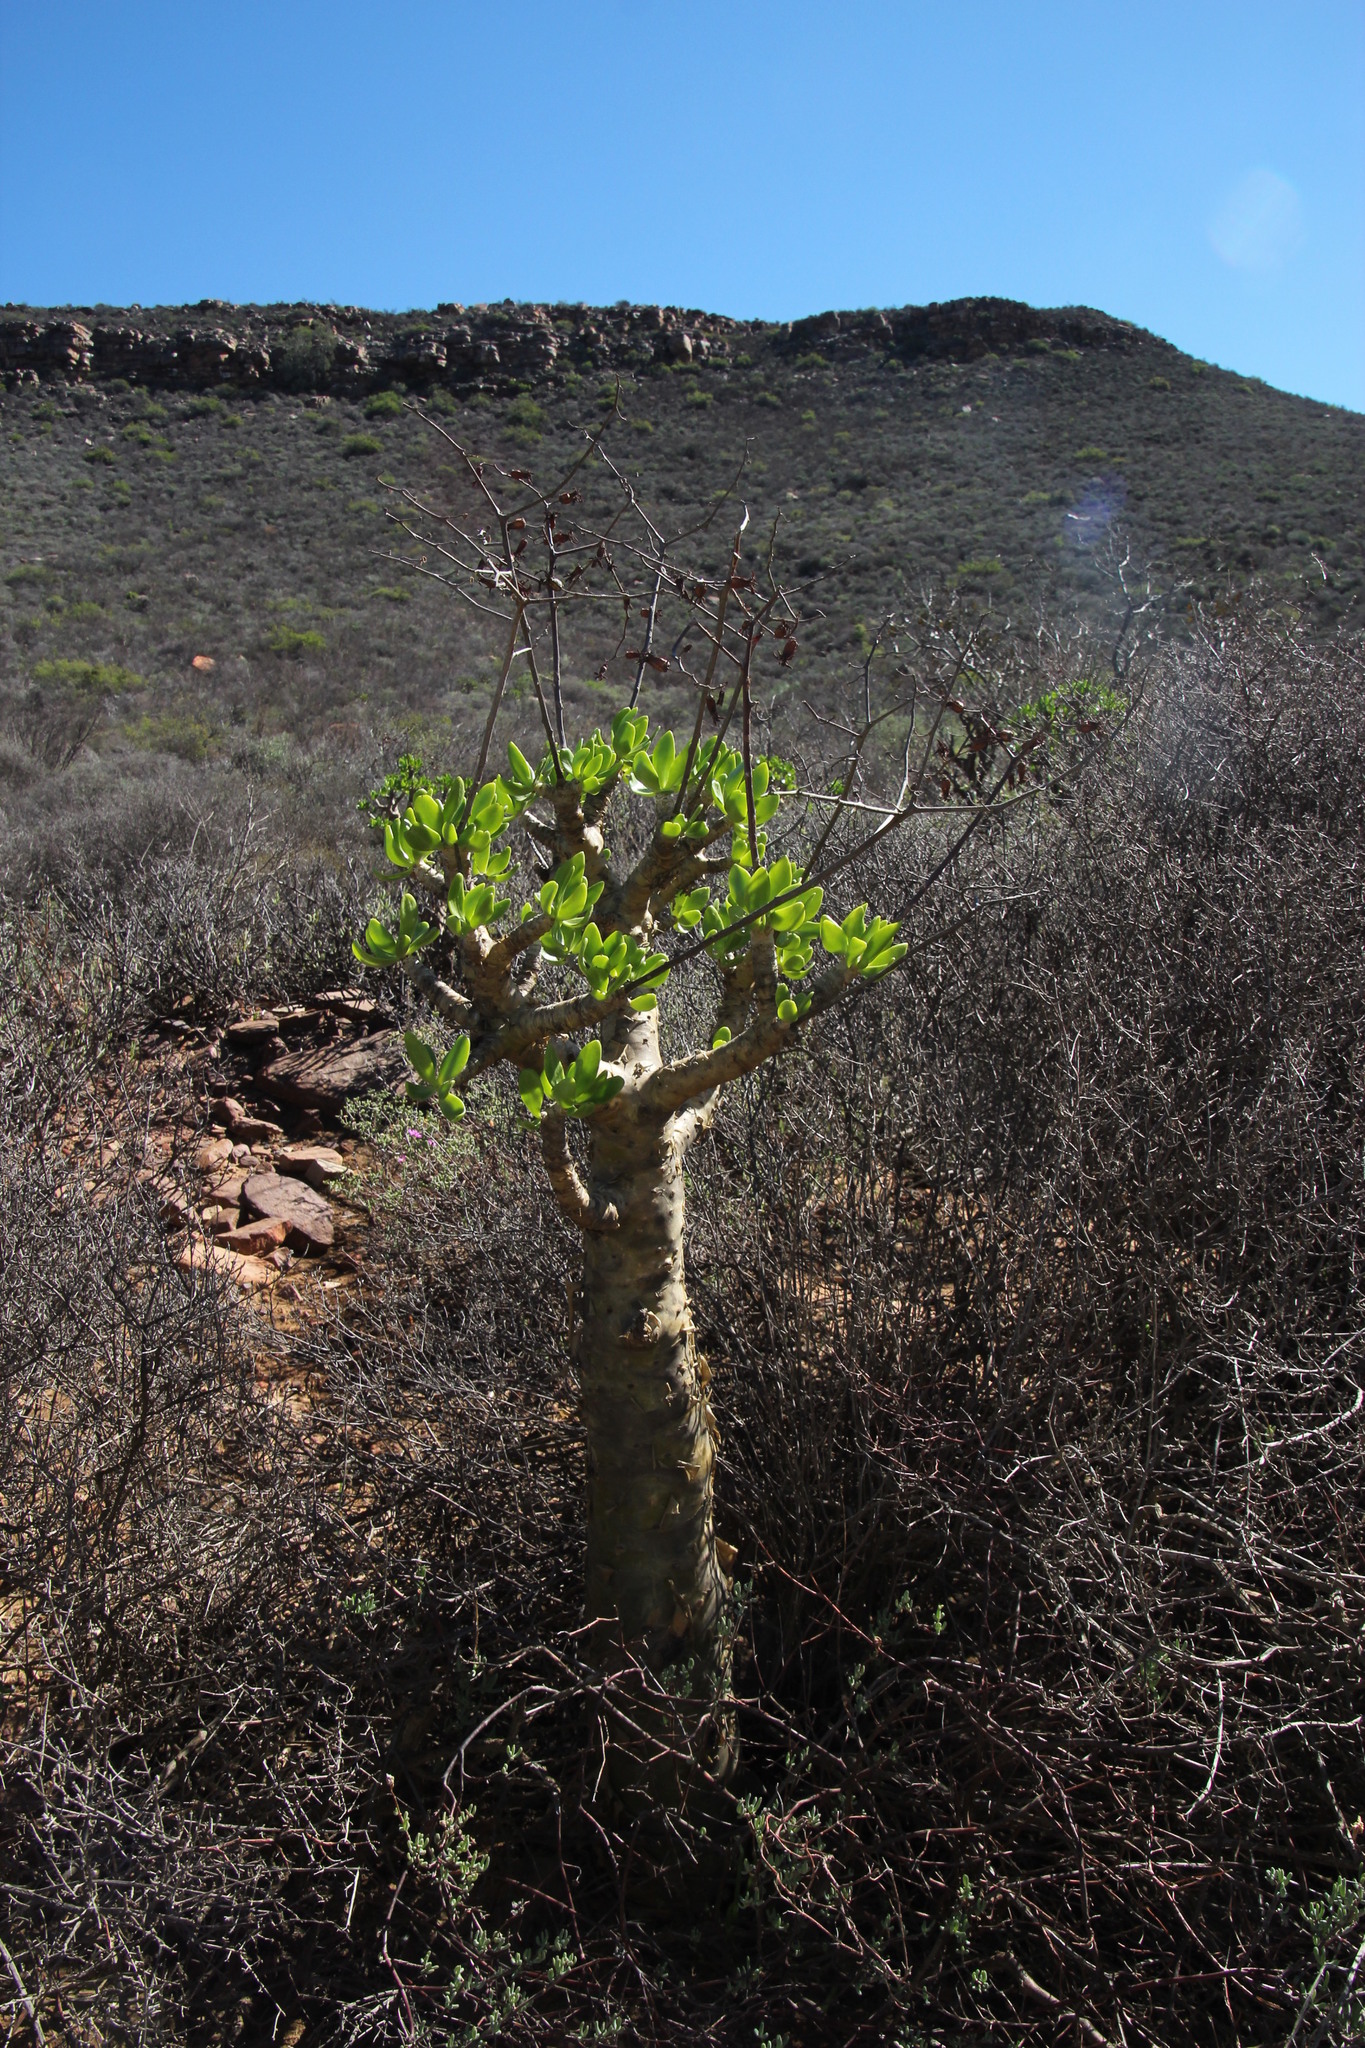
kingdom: Plantae
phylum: Tracheophyta
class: Magnoliopsida
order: Saxifragales
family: Crassulaceae
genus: Tylecodon
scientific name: Tylecodon paniculatus
